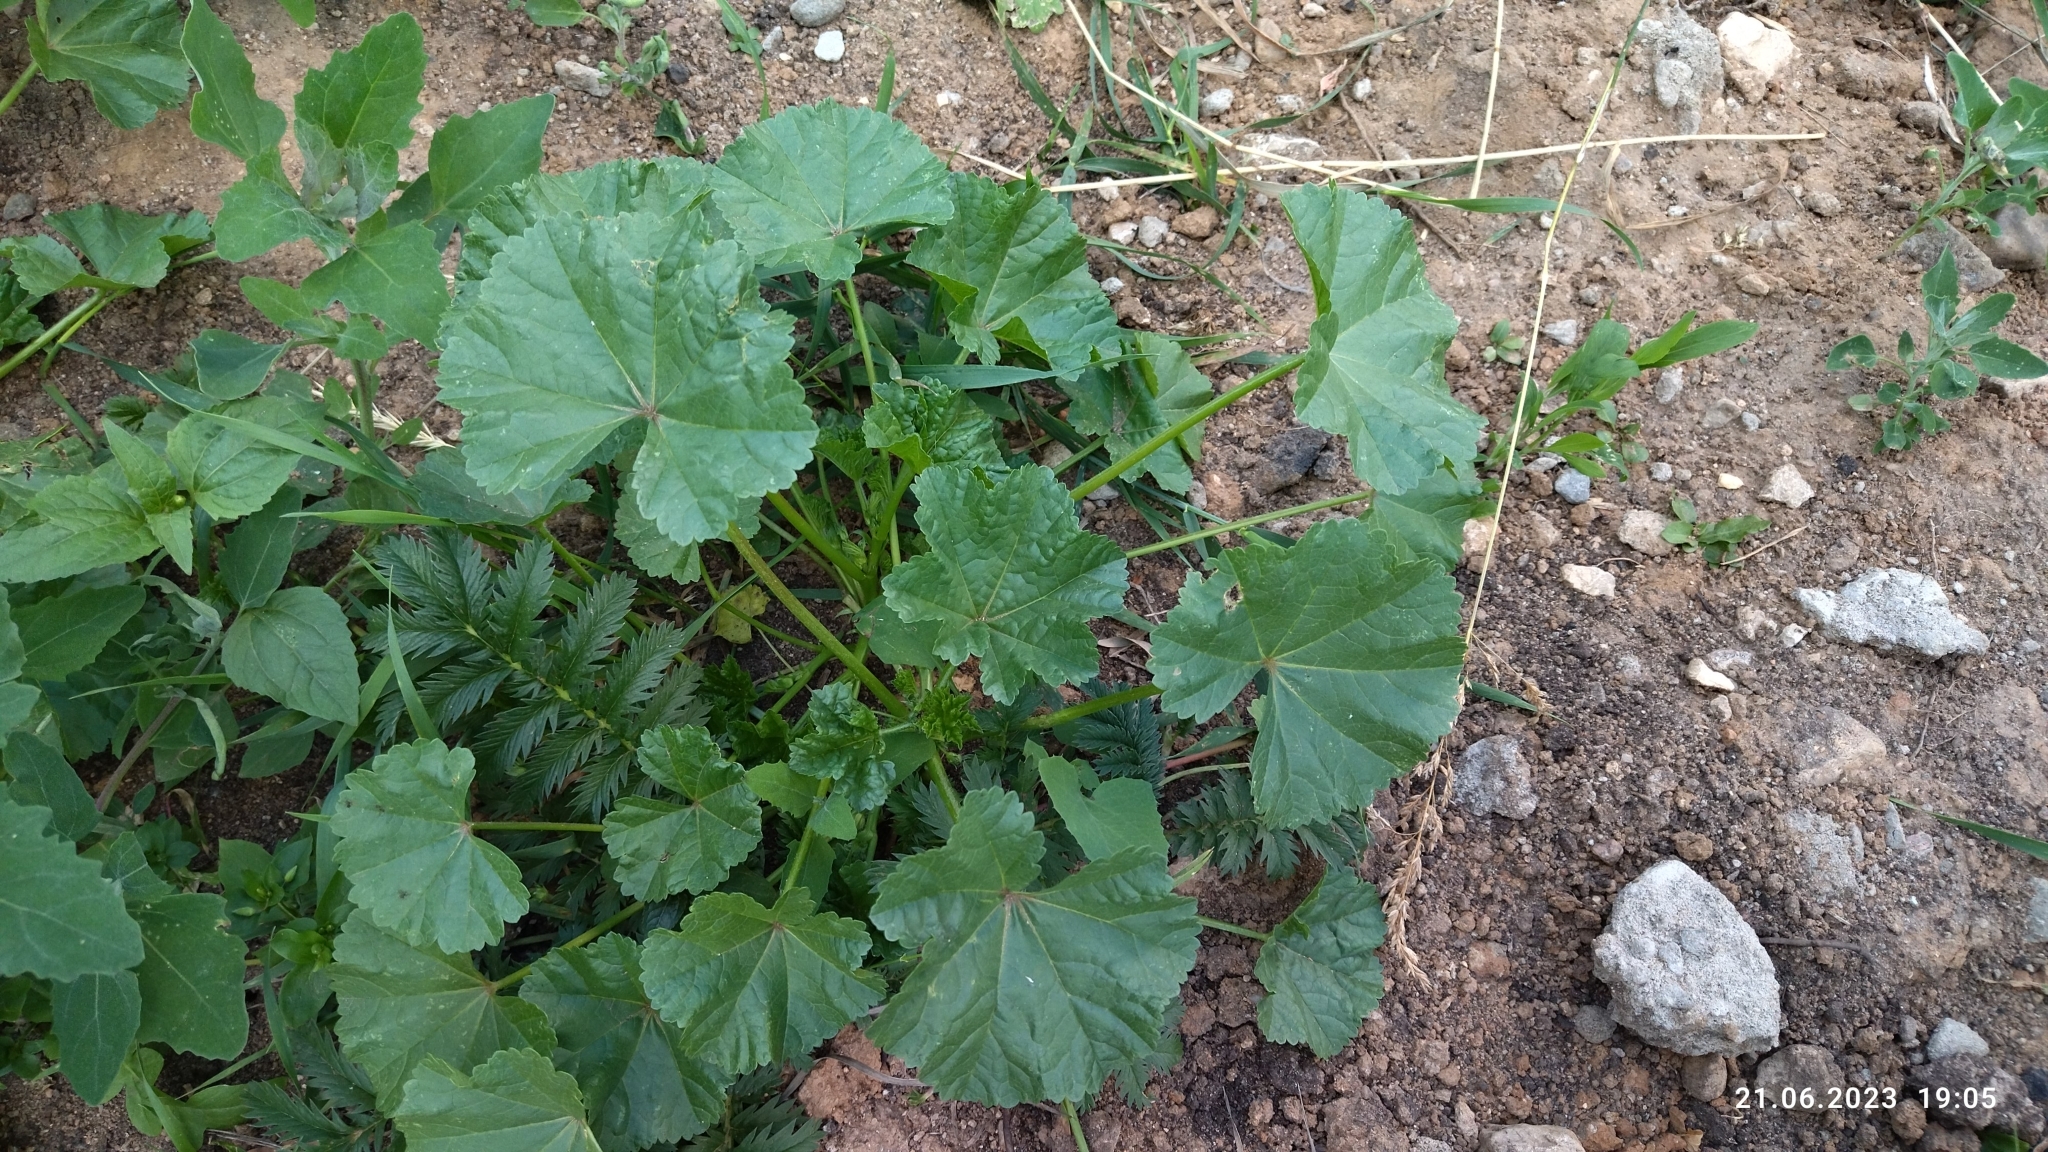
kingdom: Plantae
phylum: Tracheophyta
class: Magnoliopsida
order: Malvales
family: Malvaceae
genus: Malva
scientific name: Malva pusilla
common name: Small mallow
